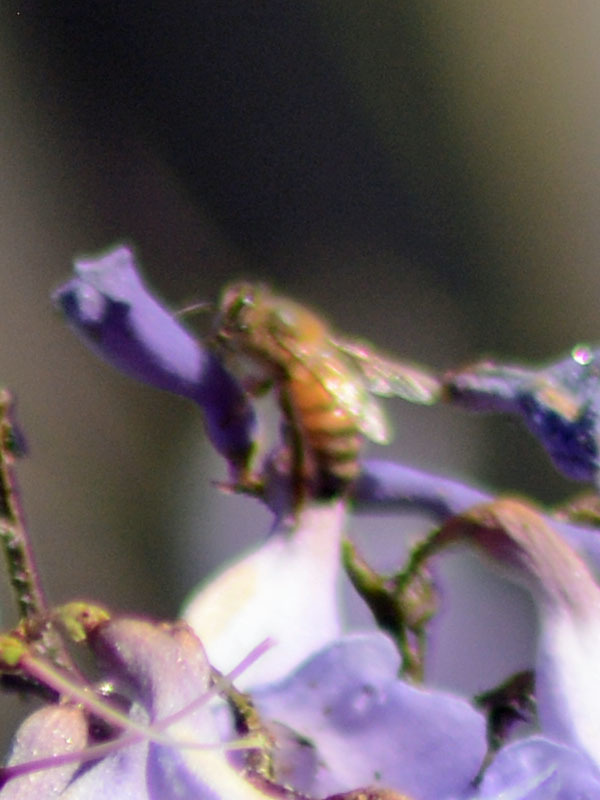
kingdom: Animalia
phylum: Arthropoda
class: Insecta
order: Hymenoptera
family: Apidae
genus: Apis
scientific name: Apis mellifera
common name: Honey bee
